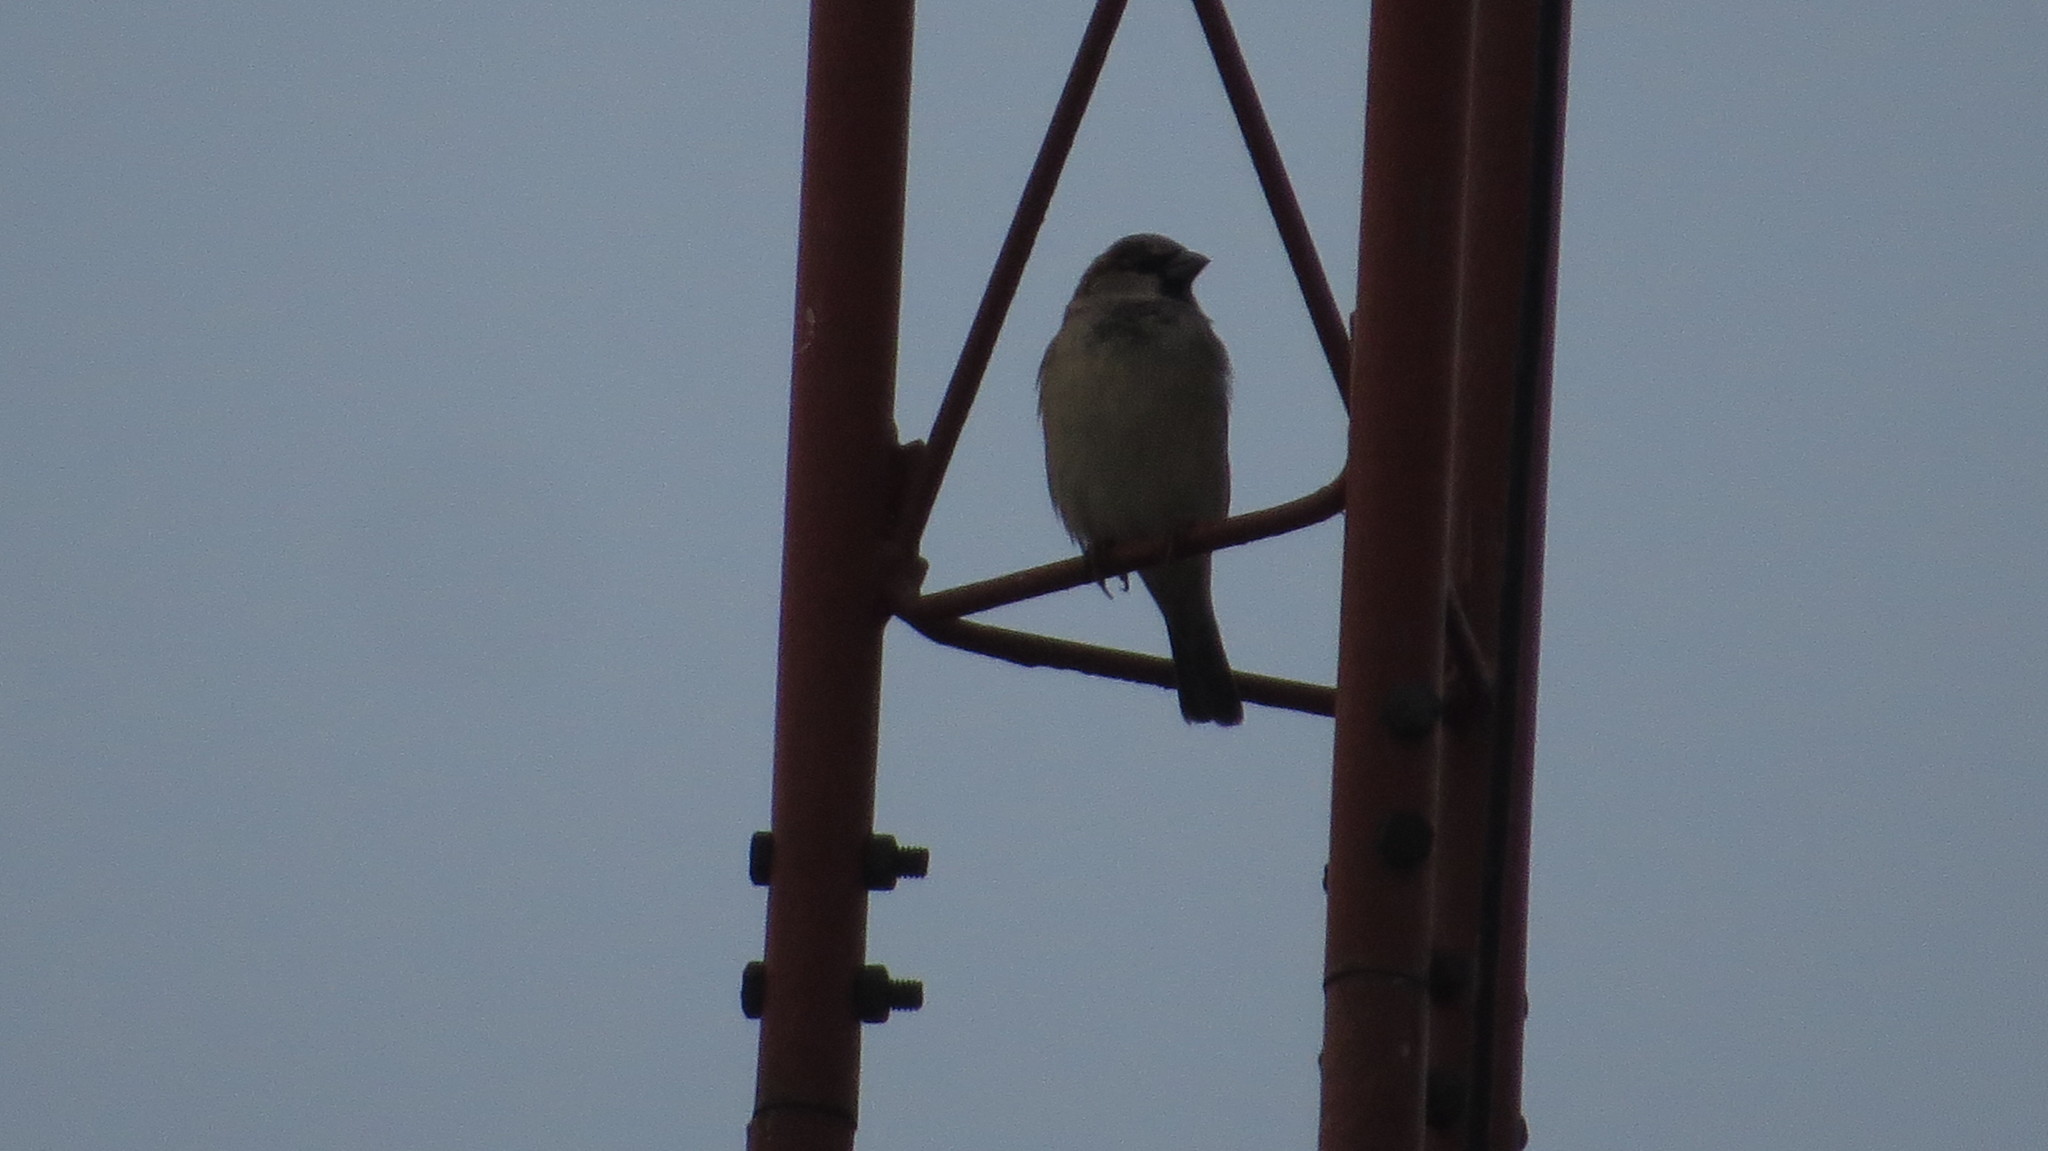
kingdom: Animalia
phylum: Chordata
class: Aves
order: Passeriformes
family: Passeridae
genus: Passer
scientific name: Passer domesticus
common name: House sparrow
